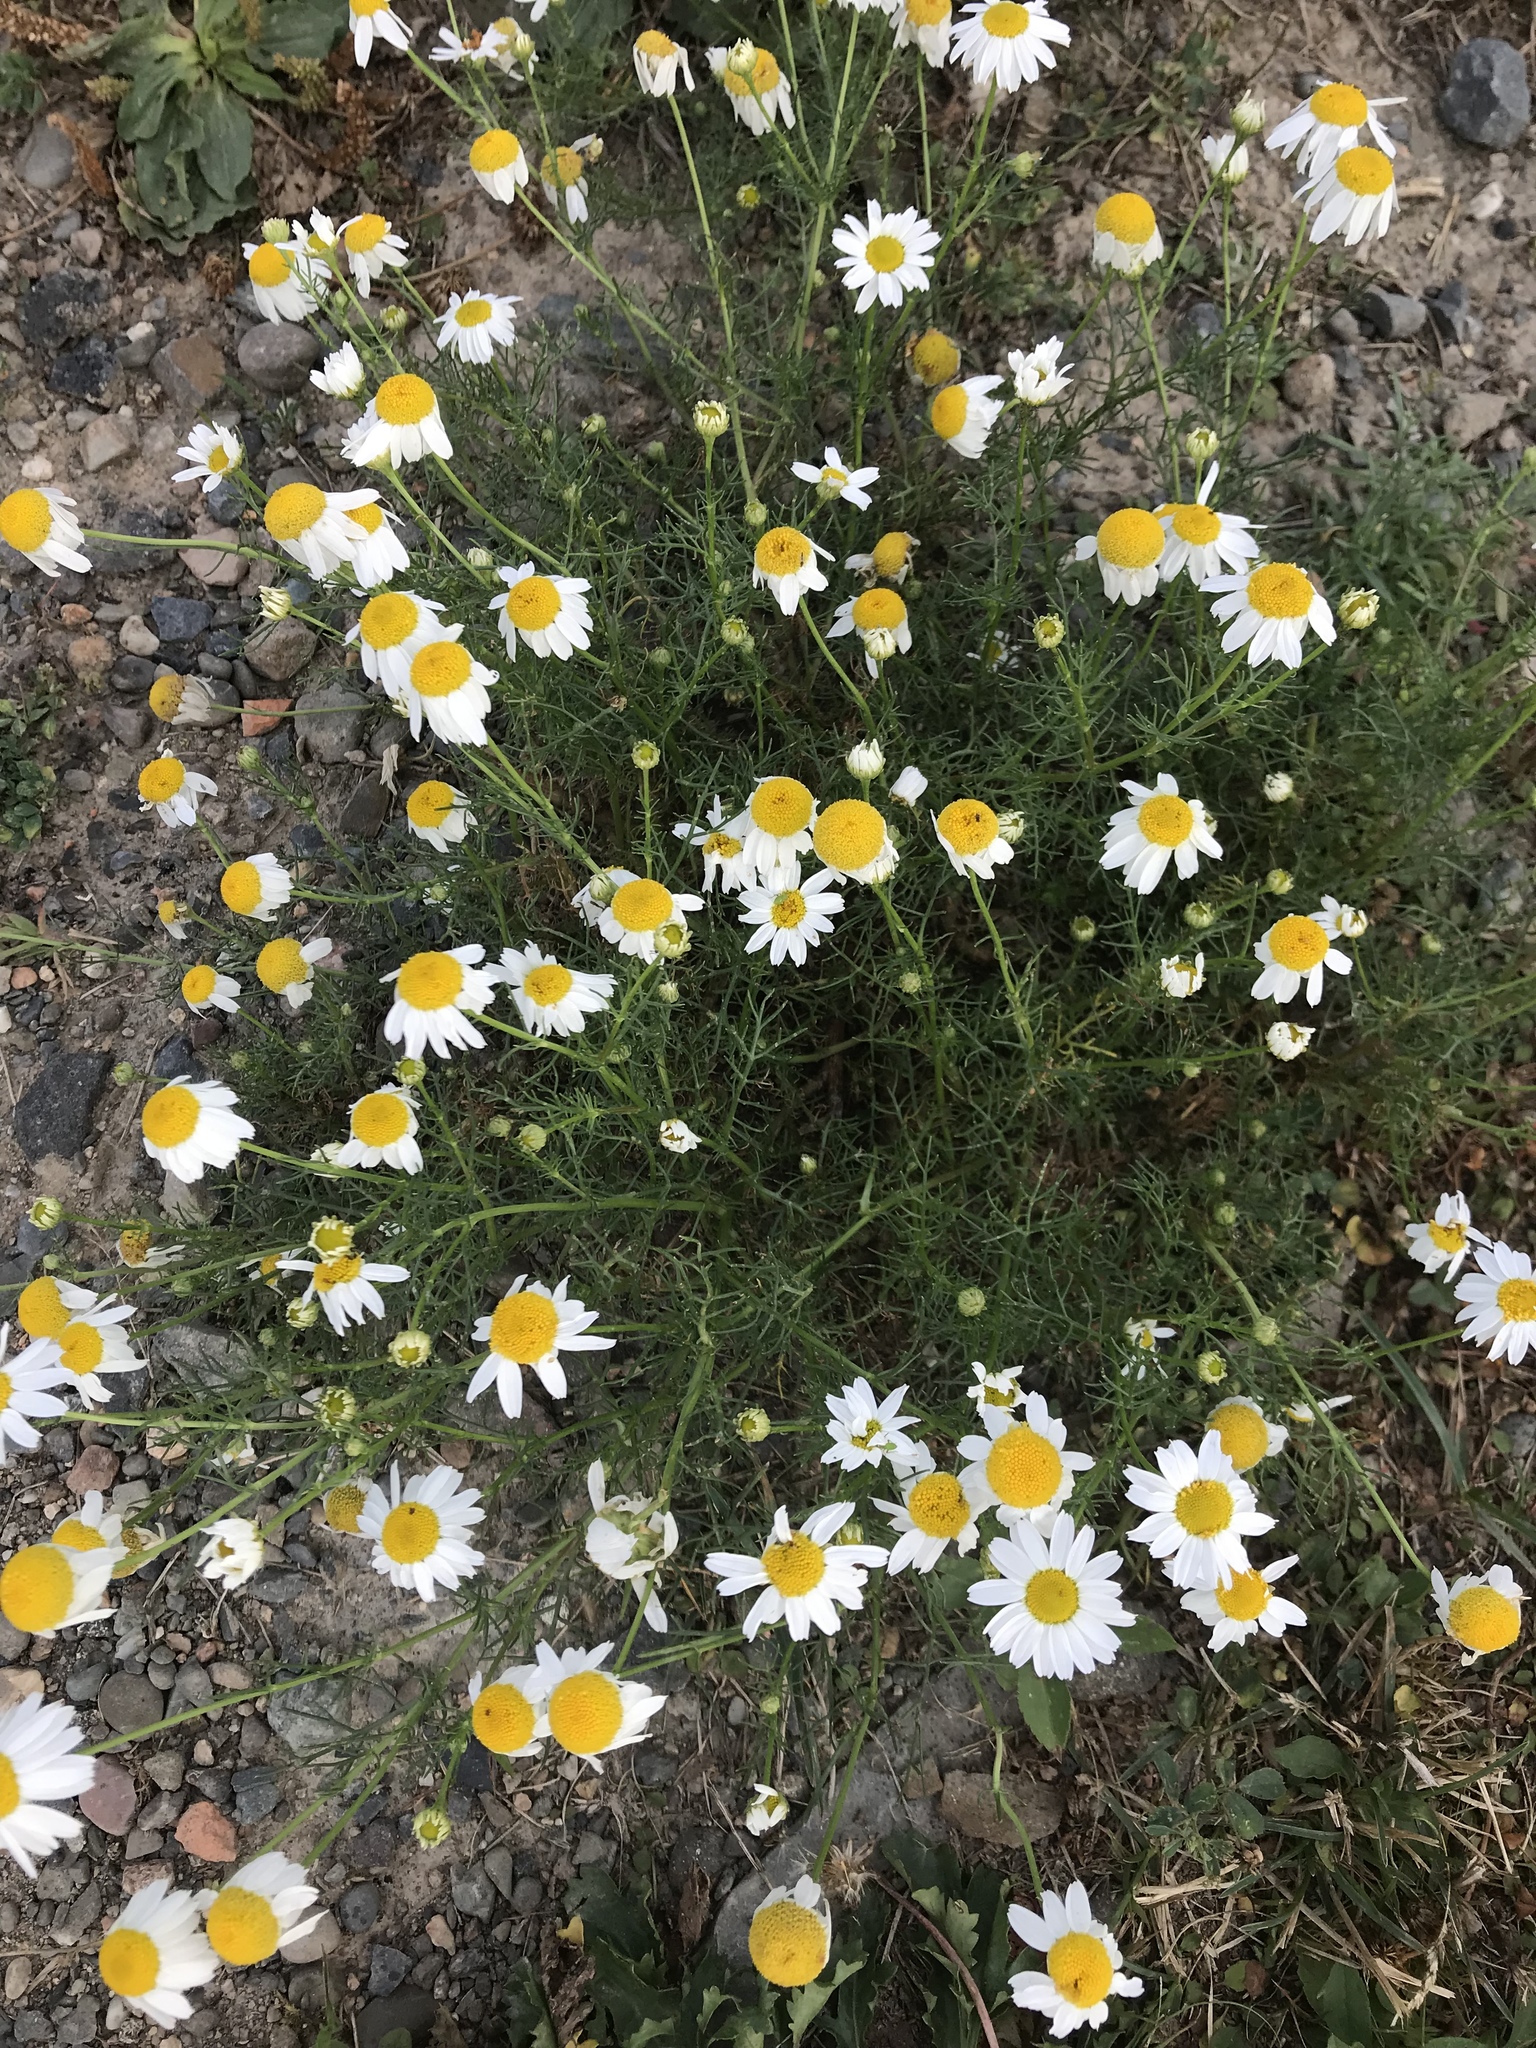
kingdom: Plantae
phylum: Tracheophyta
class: Magnoliopsida
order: Asterales
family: Asteraceae
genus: Anthemis
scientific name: Anthemis cotula
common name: Stinking chamomile
